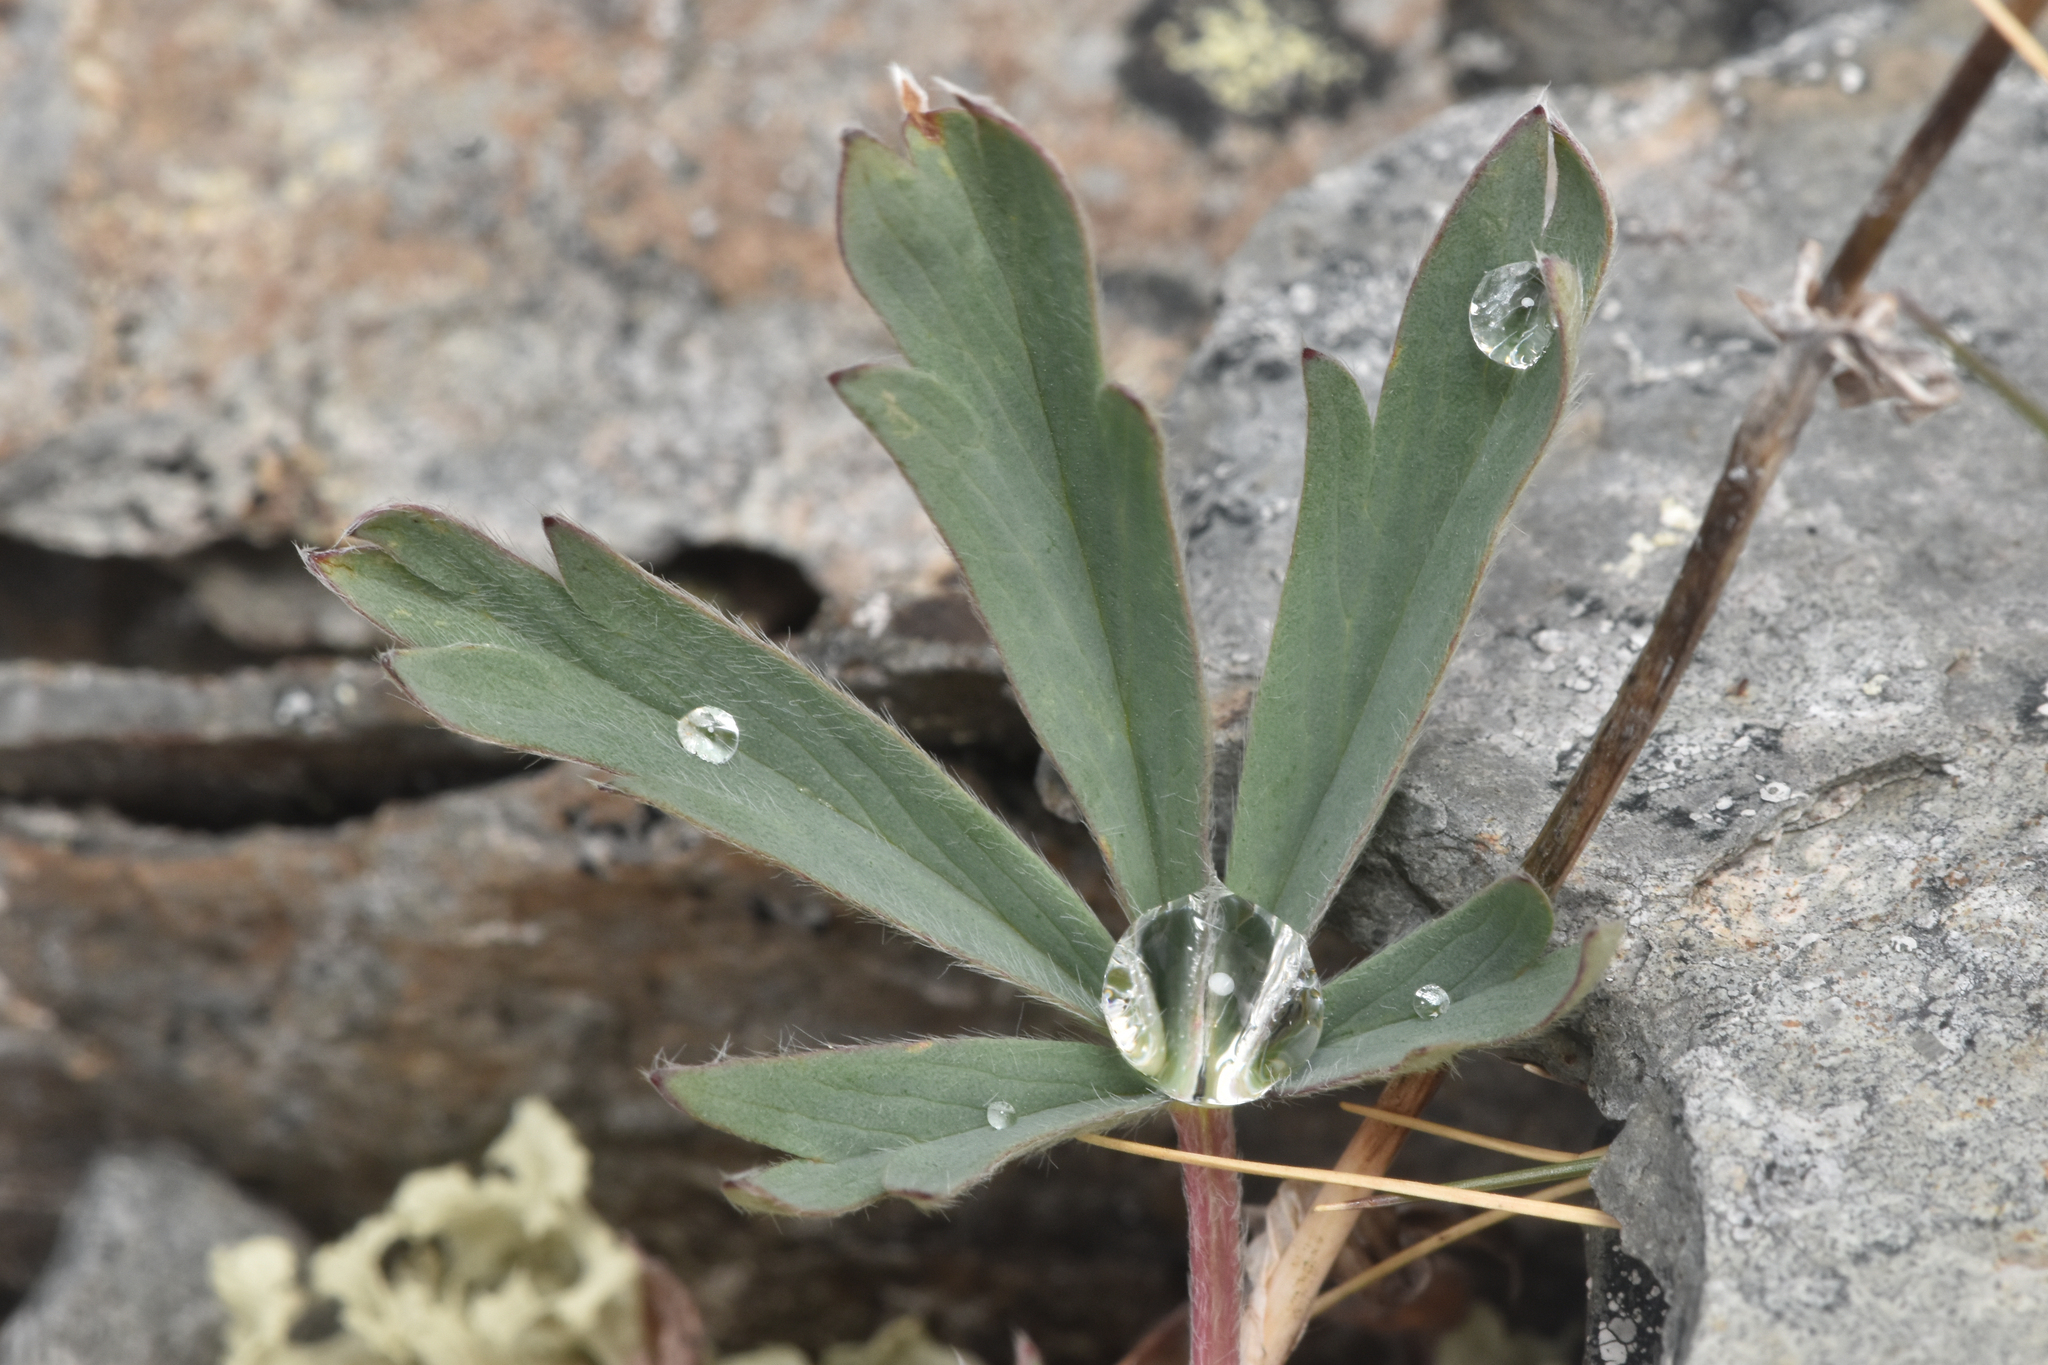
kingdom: Plantae
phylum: Tracheophyta
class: Magnoliopsida
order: Rosales
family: Rosaceae
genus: Potentilla
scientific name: Potentilla glaucophylla
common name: Blue-leaved cinquefoil
